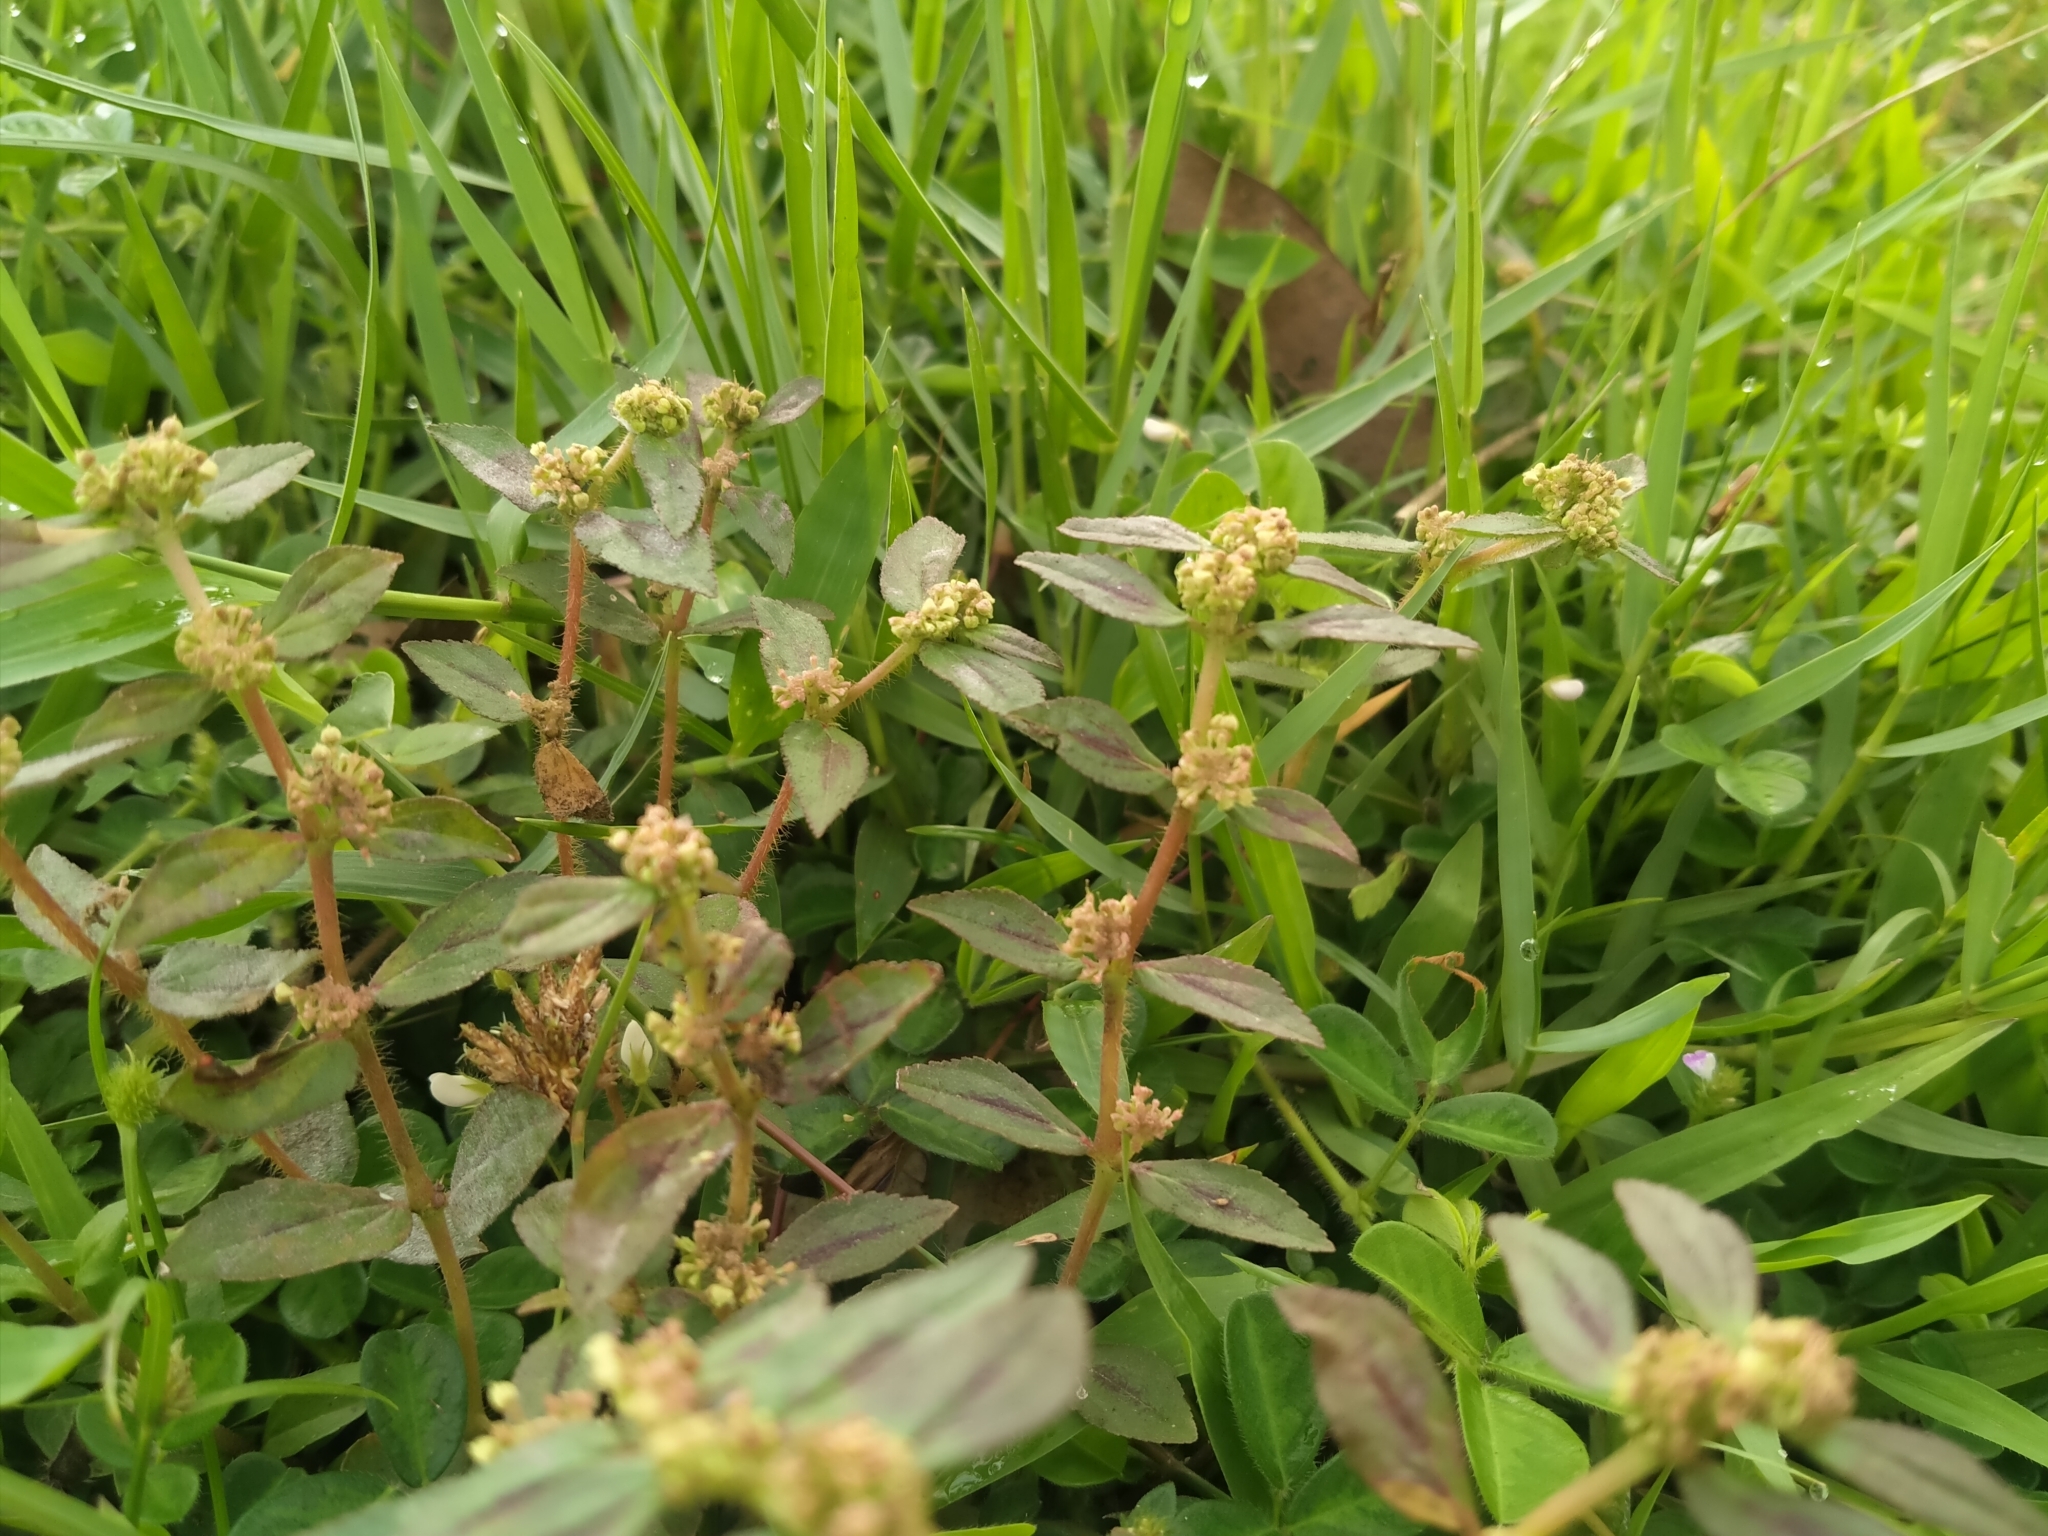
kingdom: Plantae
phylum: Tracheophyta
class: Magnoliopsida
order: Malpighiales
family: Euphorbiaceae
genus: Euphorbia
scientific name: Euphorbia hirta
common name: Pillpod sandmat
